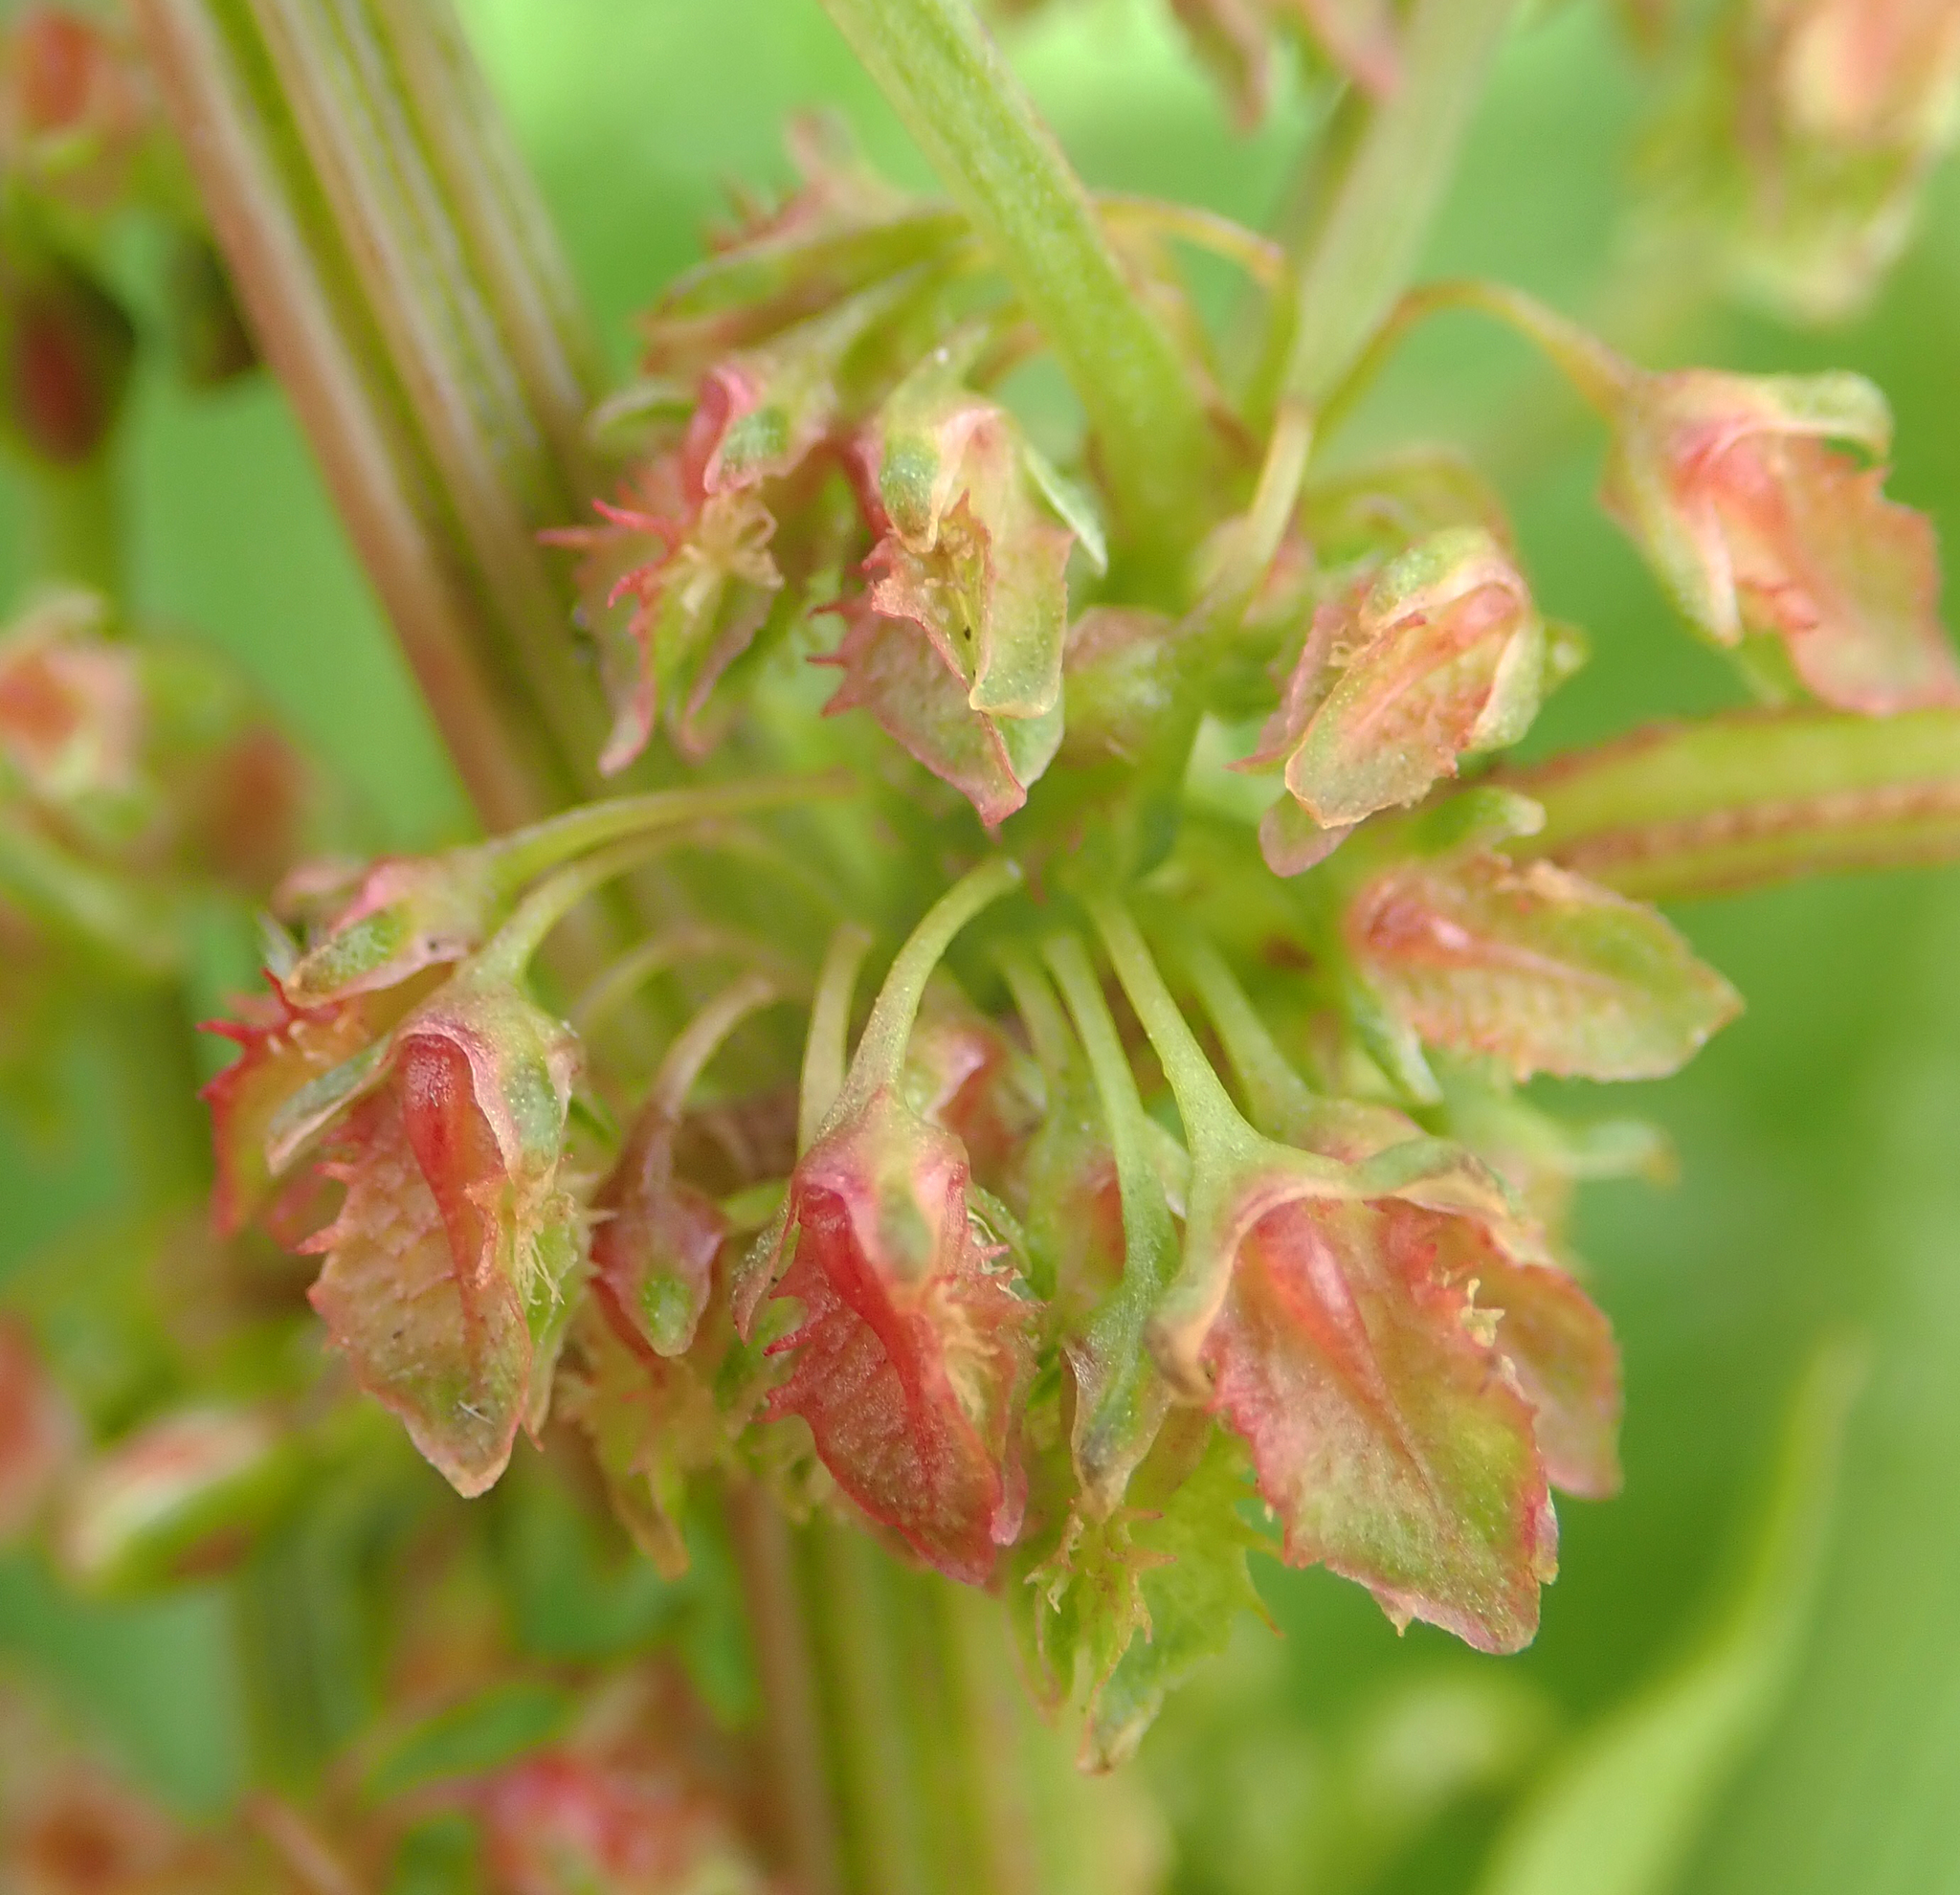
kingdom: Plantae
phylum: Tracheophyta
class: Magnoliopsida
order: Caryophyllales
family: Polygonaceae
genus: Rumex
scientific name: Rumex obtusifolius
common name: Bitter dock
